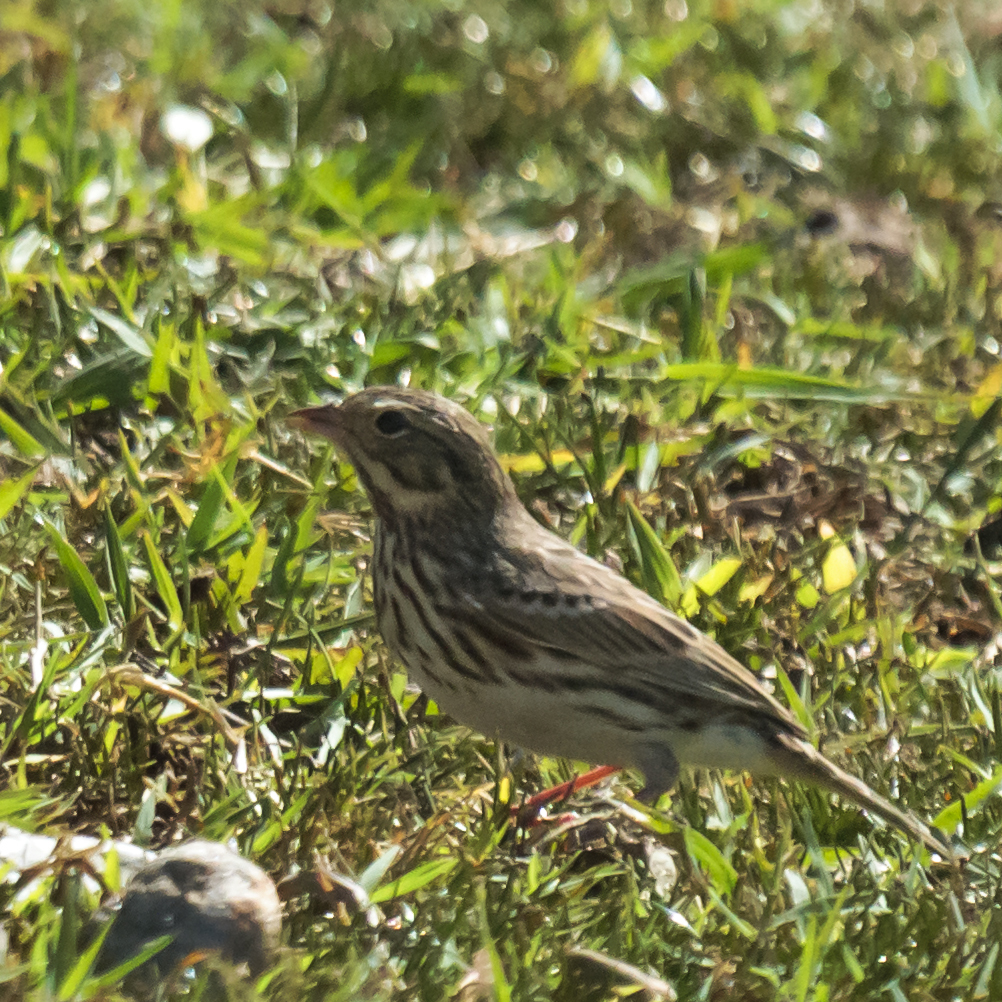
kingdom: Animalia
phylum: Chordata
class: Aves
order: Passeriformes
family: Passerellidae
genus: Passerculus
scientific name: Passerculus sandwichensis
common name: Savannah sparrow
